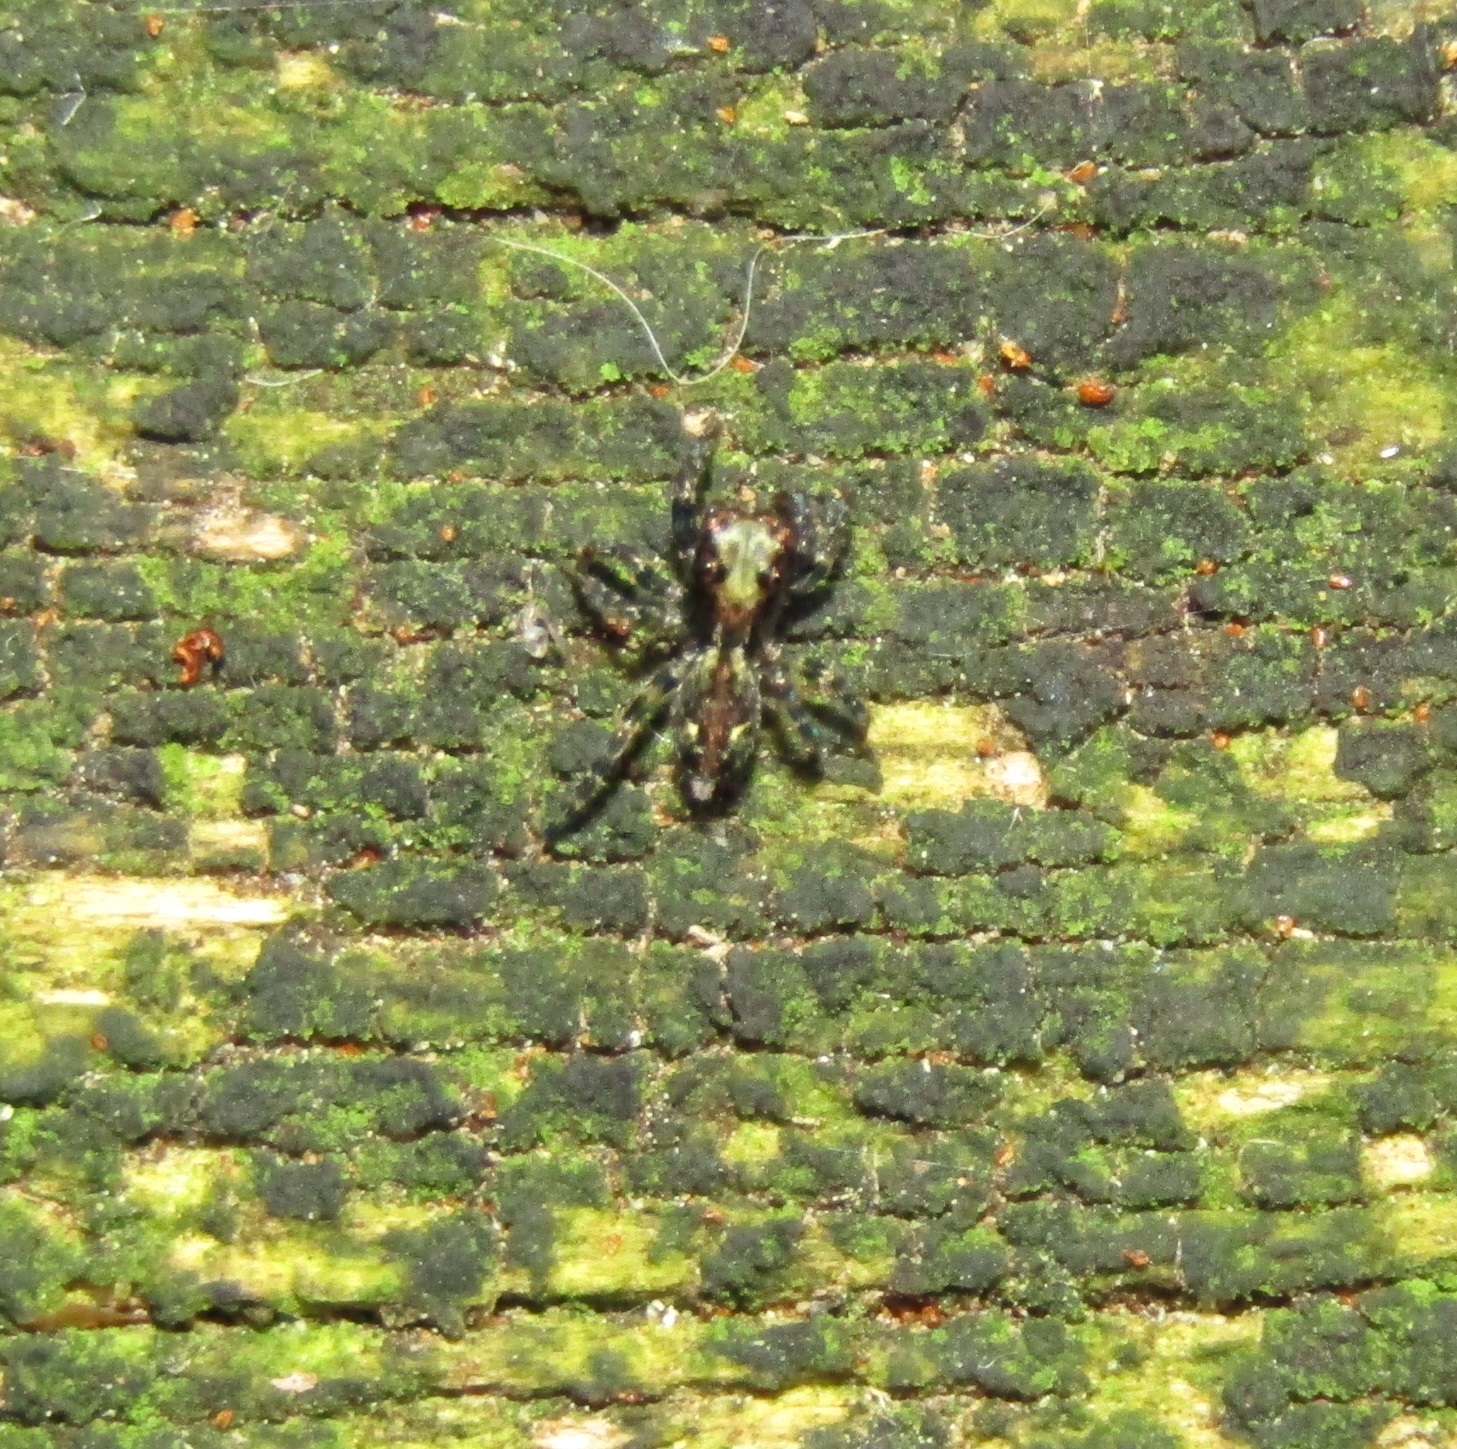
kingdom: Animalia
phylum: Arthropoda
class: Arachnida
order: Araneae
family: Salticidae
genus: Hinewaia
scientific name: Hinewaia embolica
